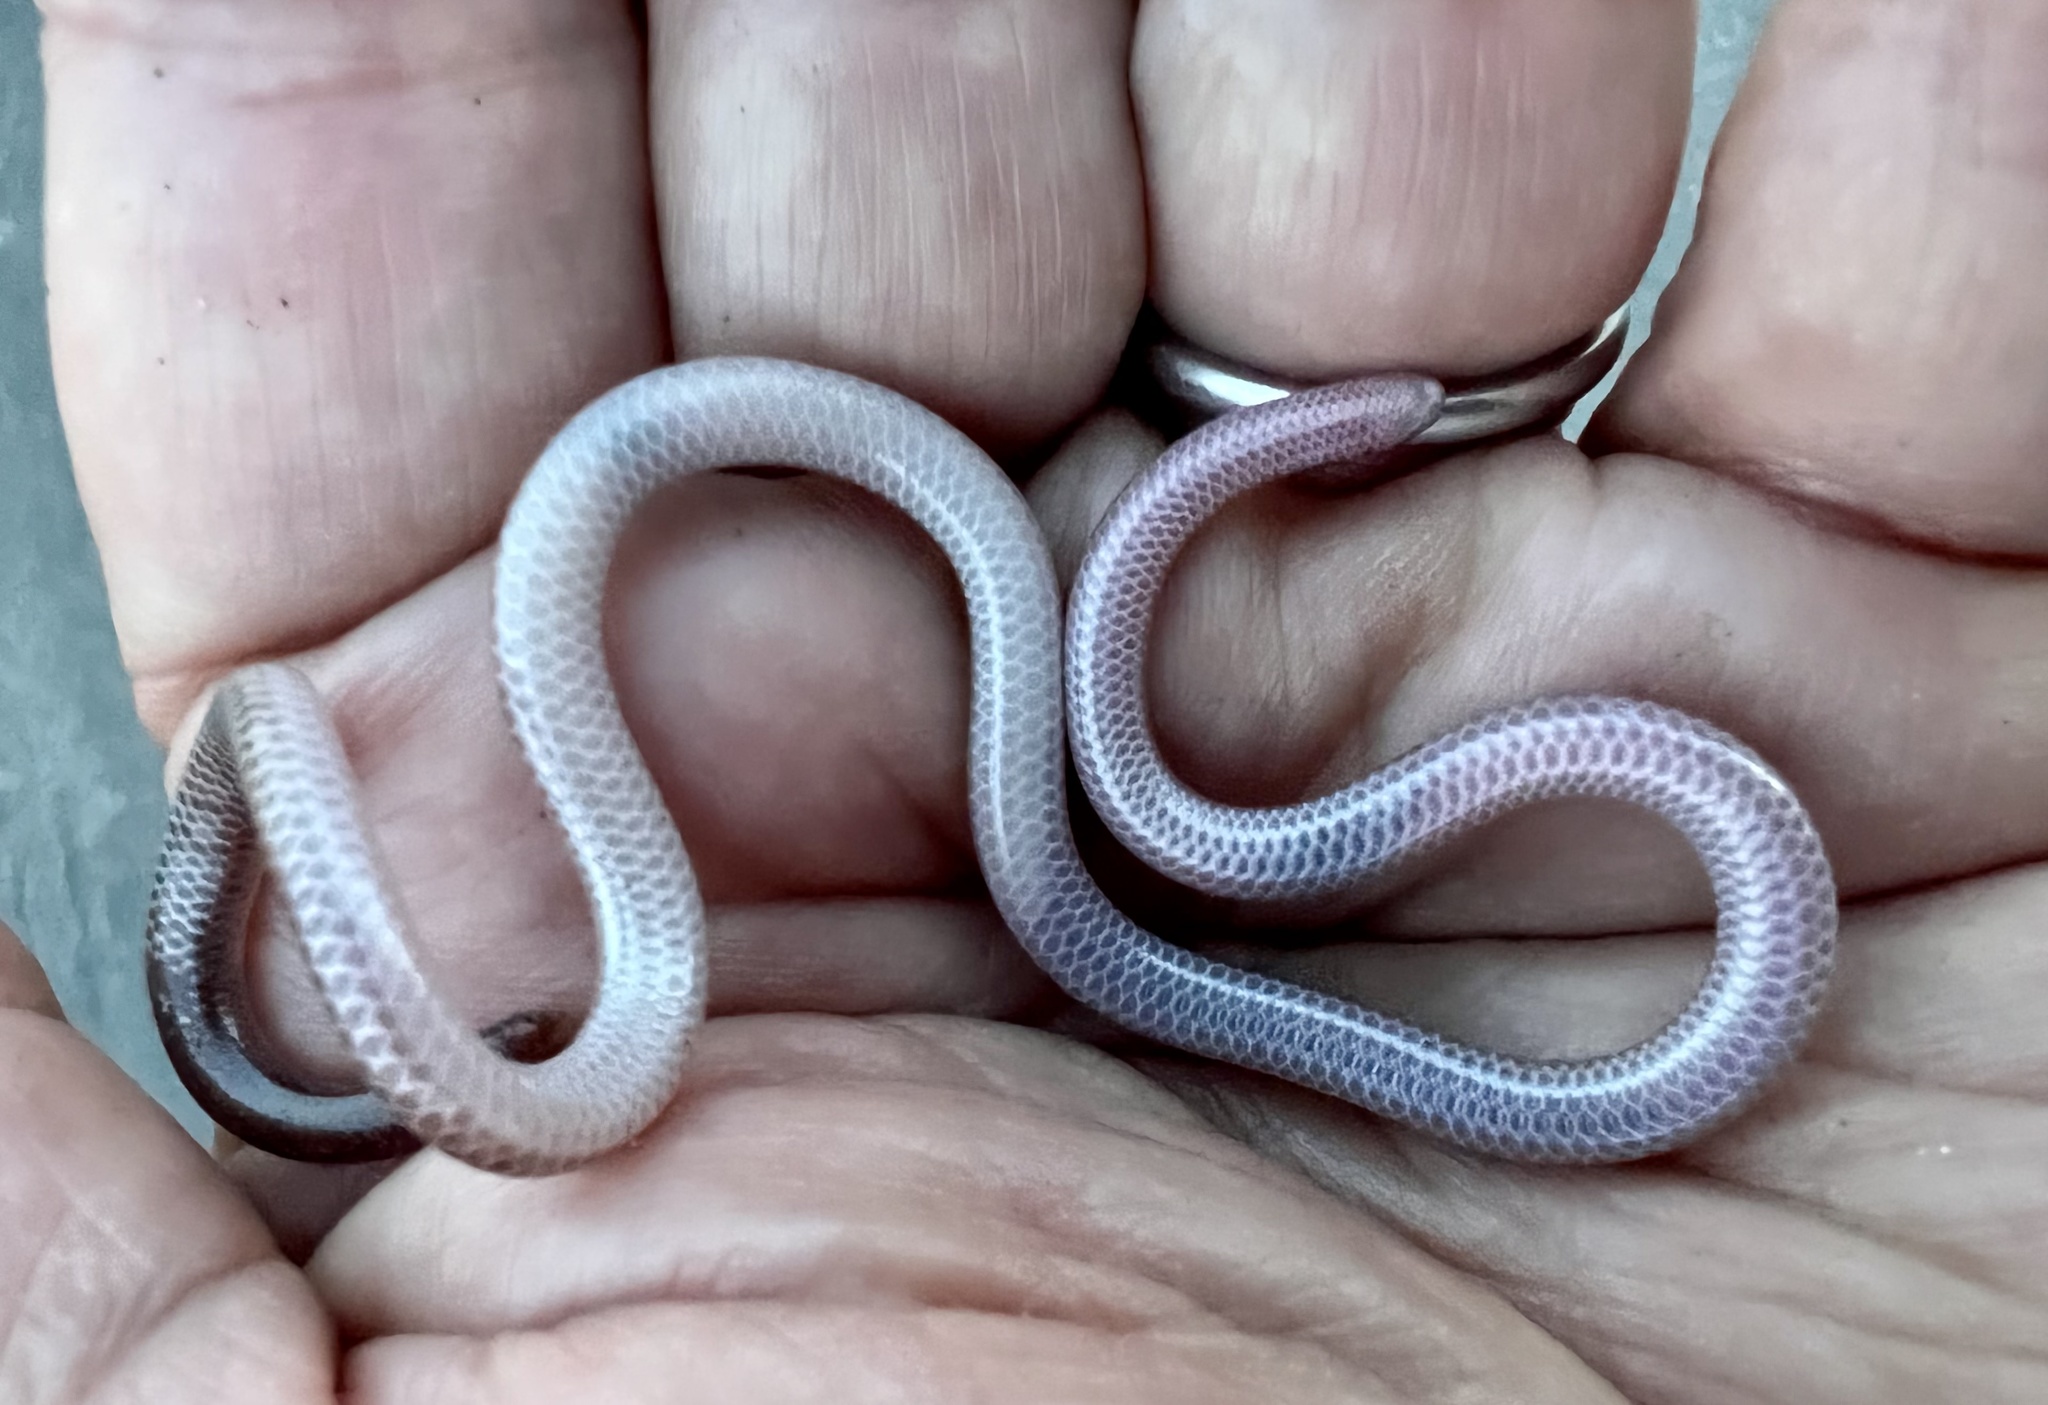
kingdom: Animalia
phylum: Chordata
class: Squamata
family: Leptotyphlopidae
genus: Rena
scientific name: Rena humilis
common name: Western threadsnake
